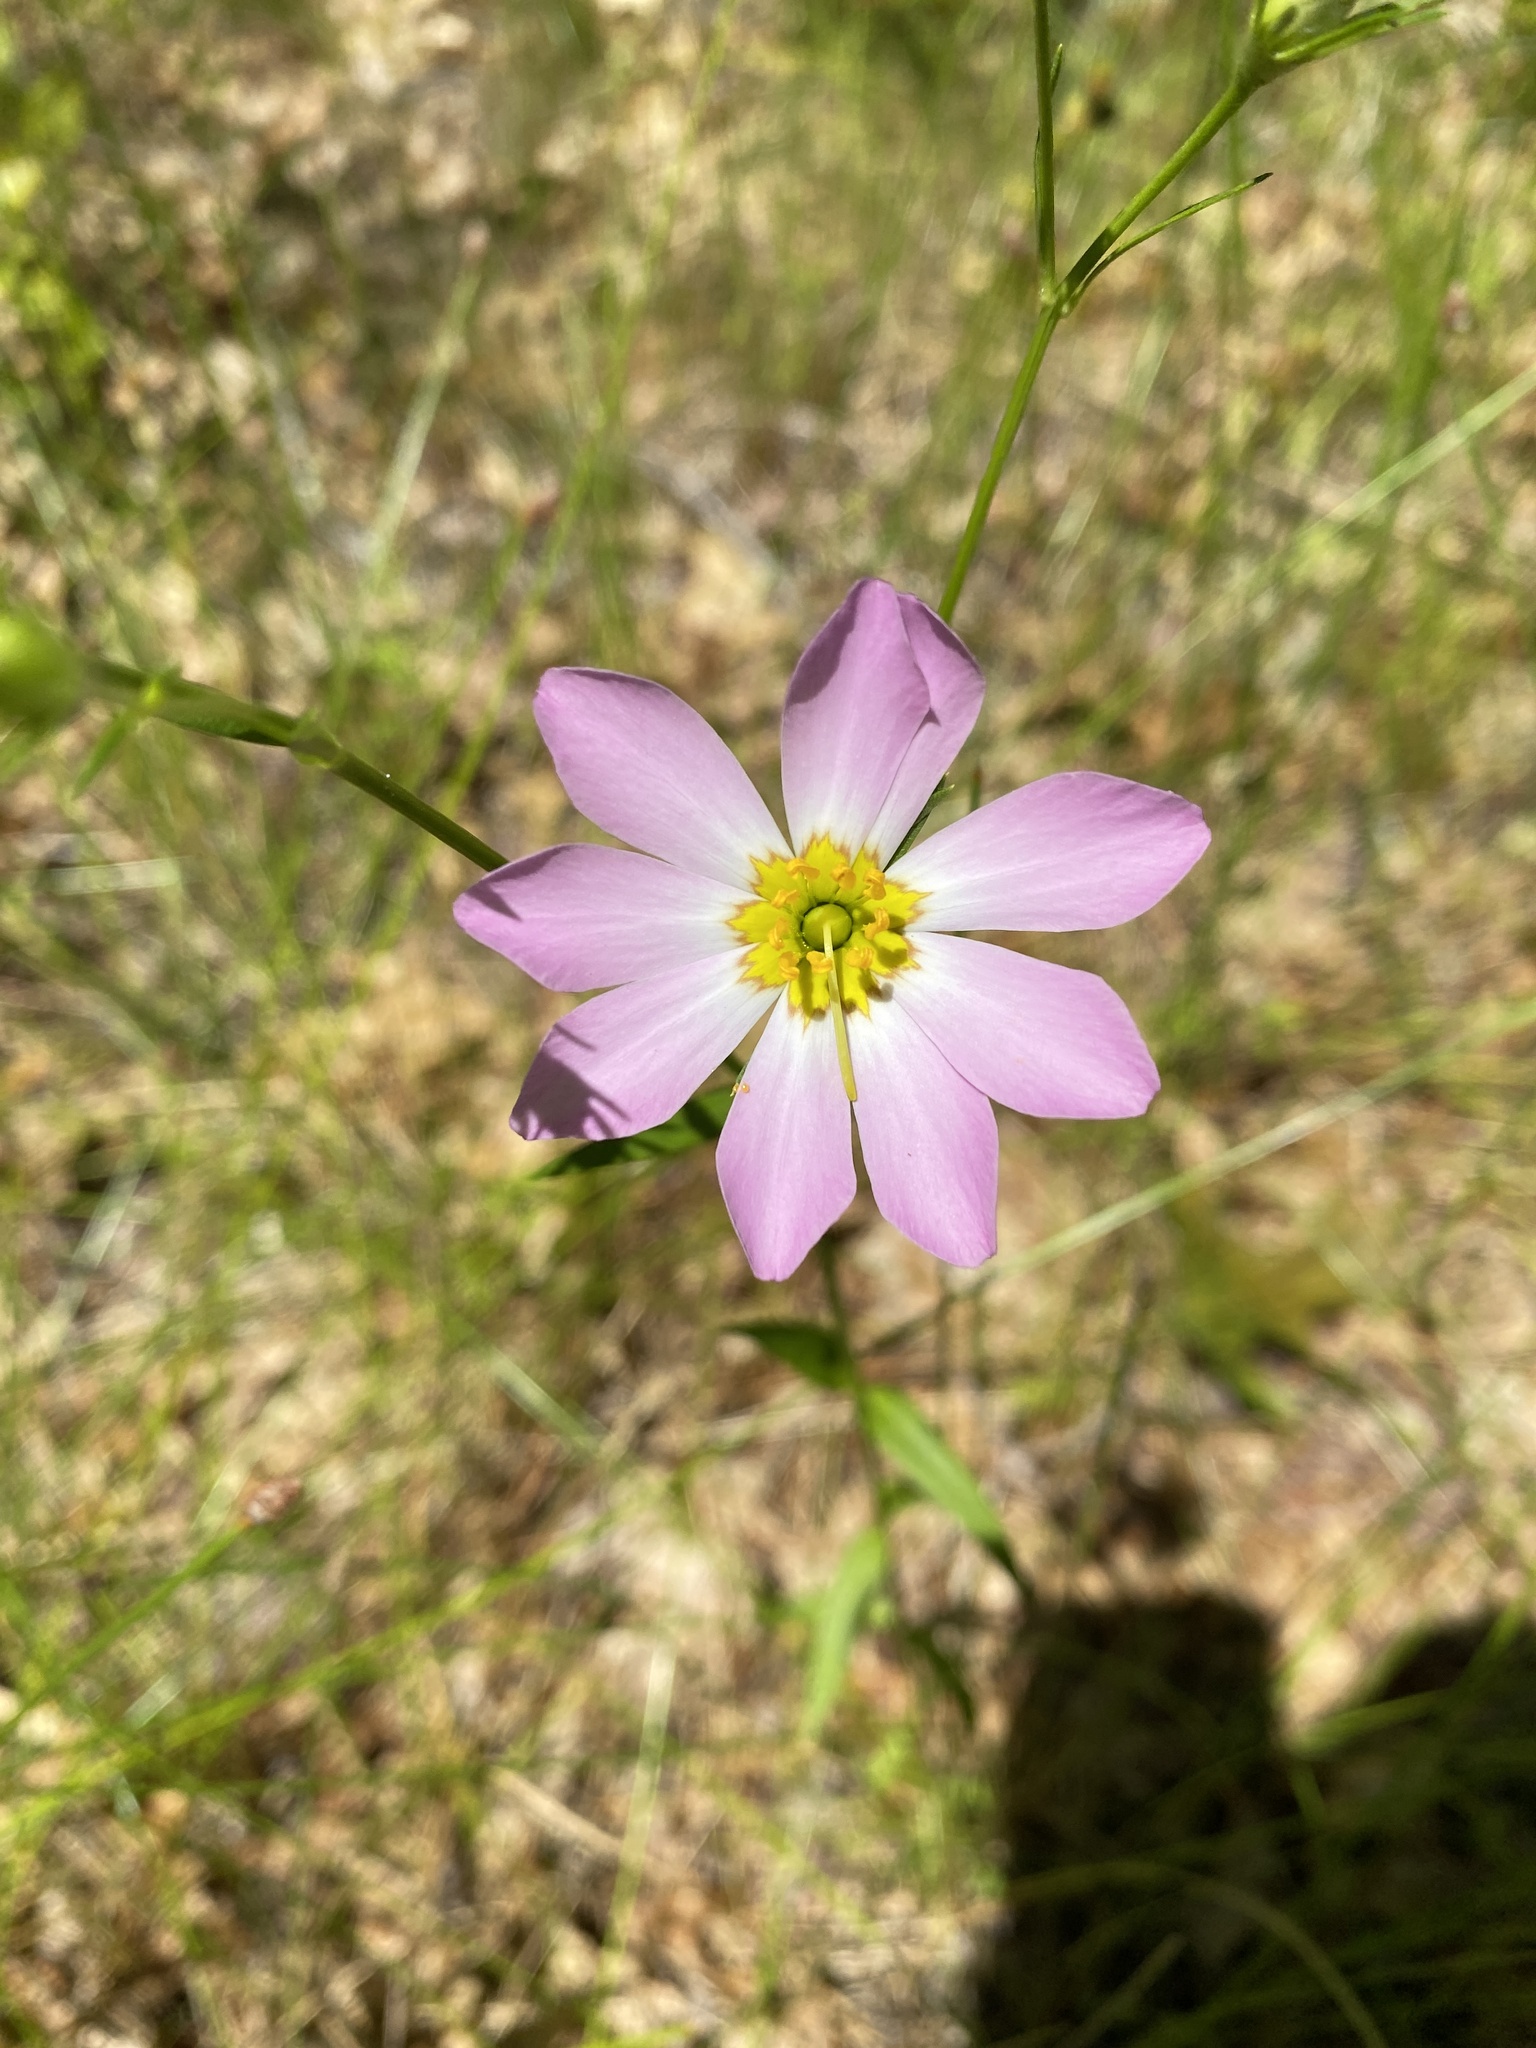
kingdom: Plantae
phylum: Tracheophyta
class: Magnoliopsida
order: Gentianales
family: Gentianaceae
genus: Sabatia
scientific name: Sabatia kennedyana
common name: Plymouth gentian
